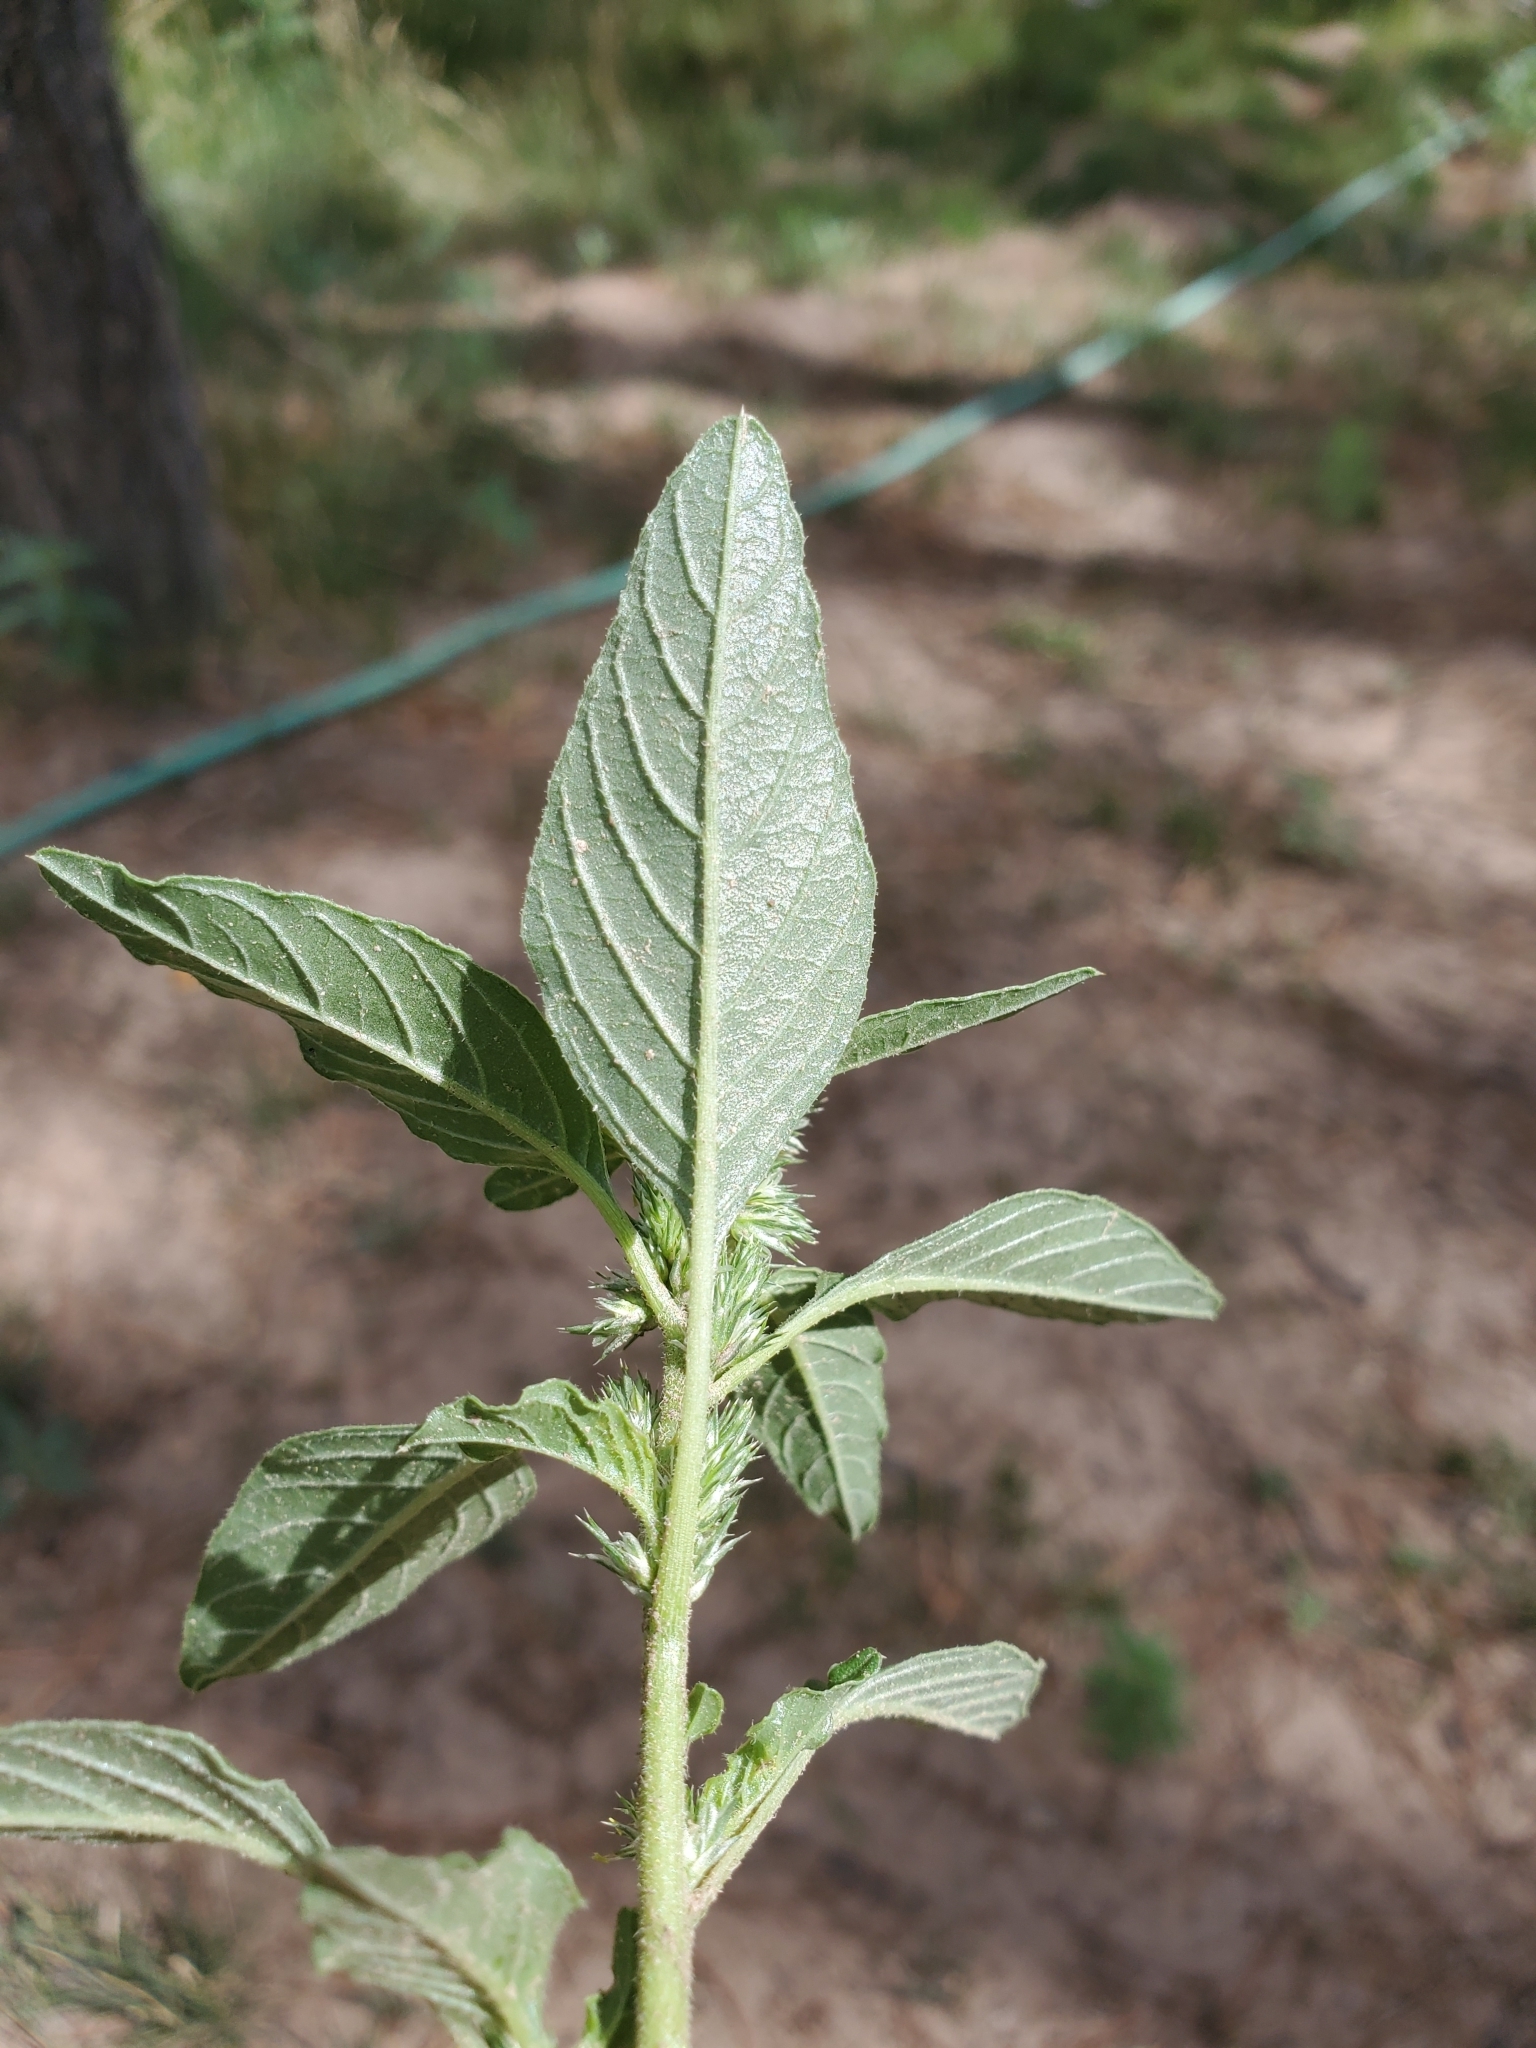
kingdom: Plantae
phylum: Tracheophyta
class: Magnoliopsida
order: Caryophyllales
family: Amaranthaceae
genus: Amaranthus
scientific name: Amaranthus retroflexus
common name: Redroot amaranth
